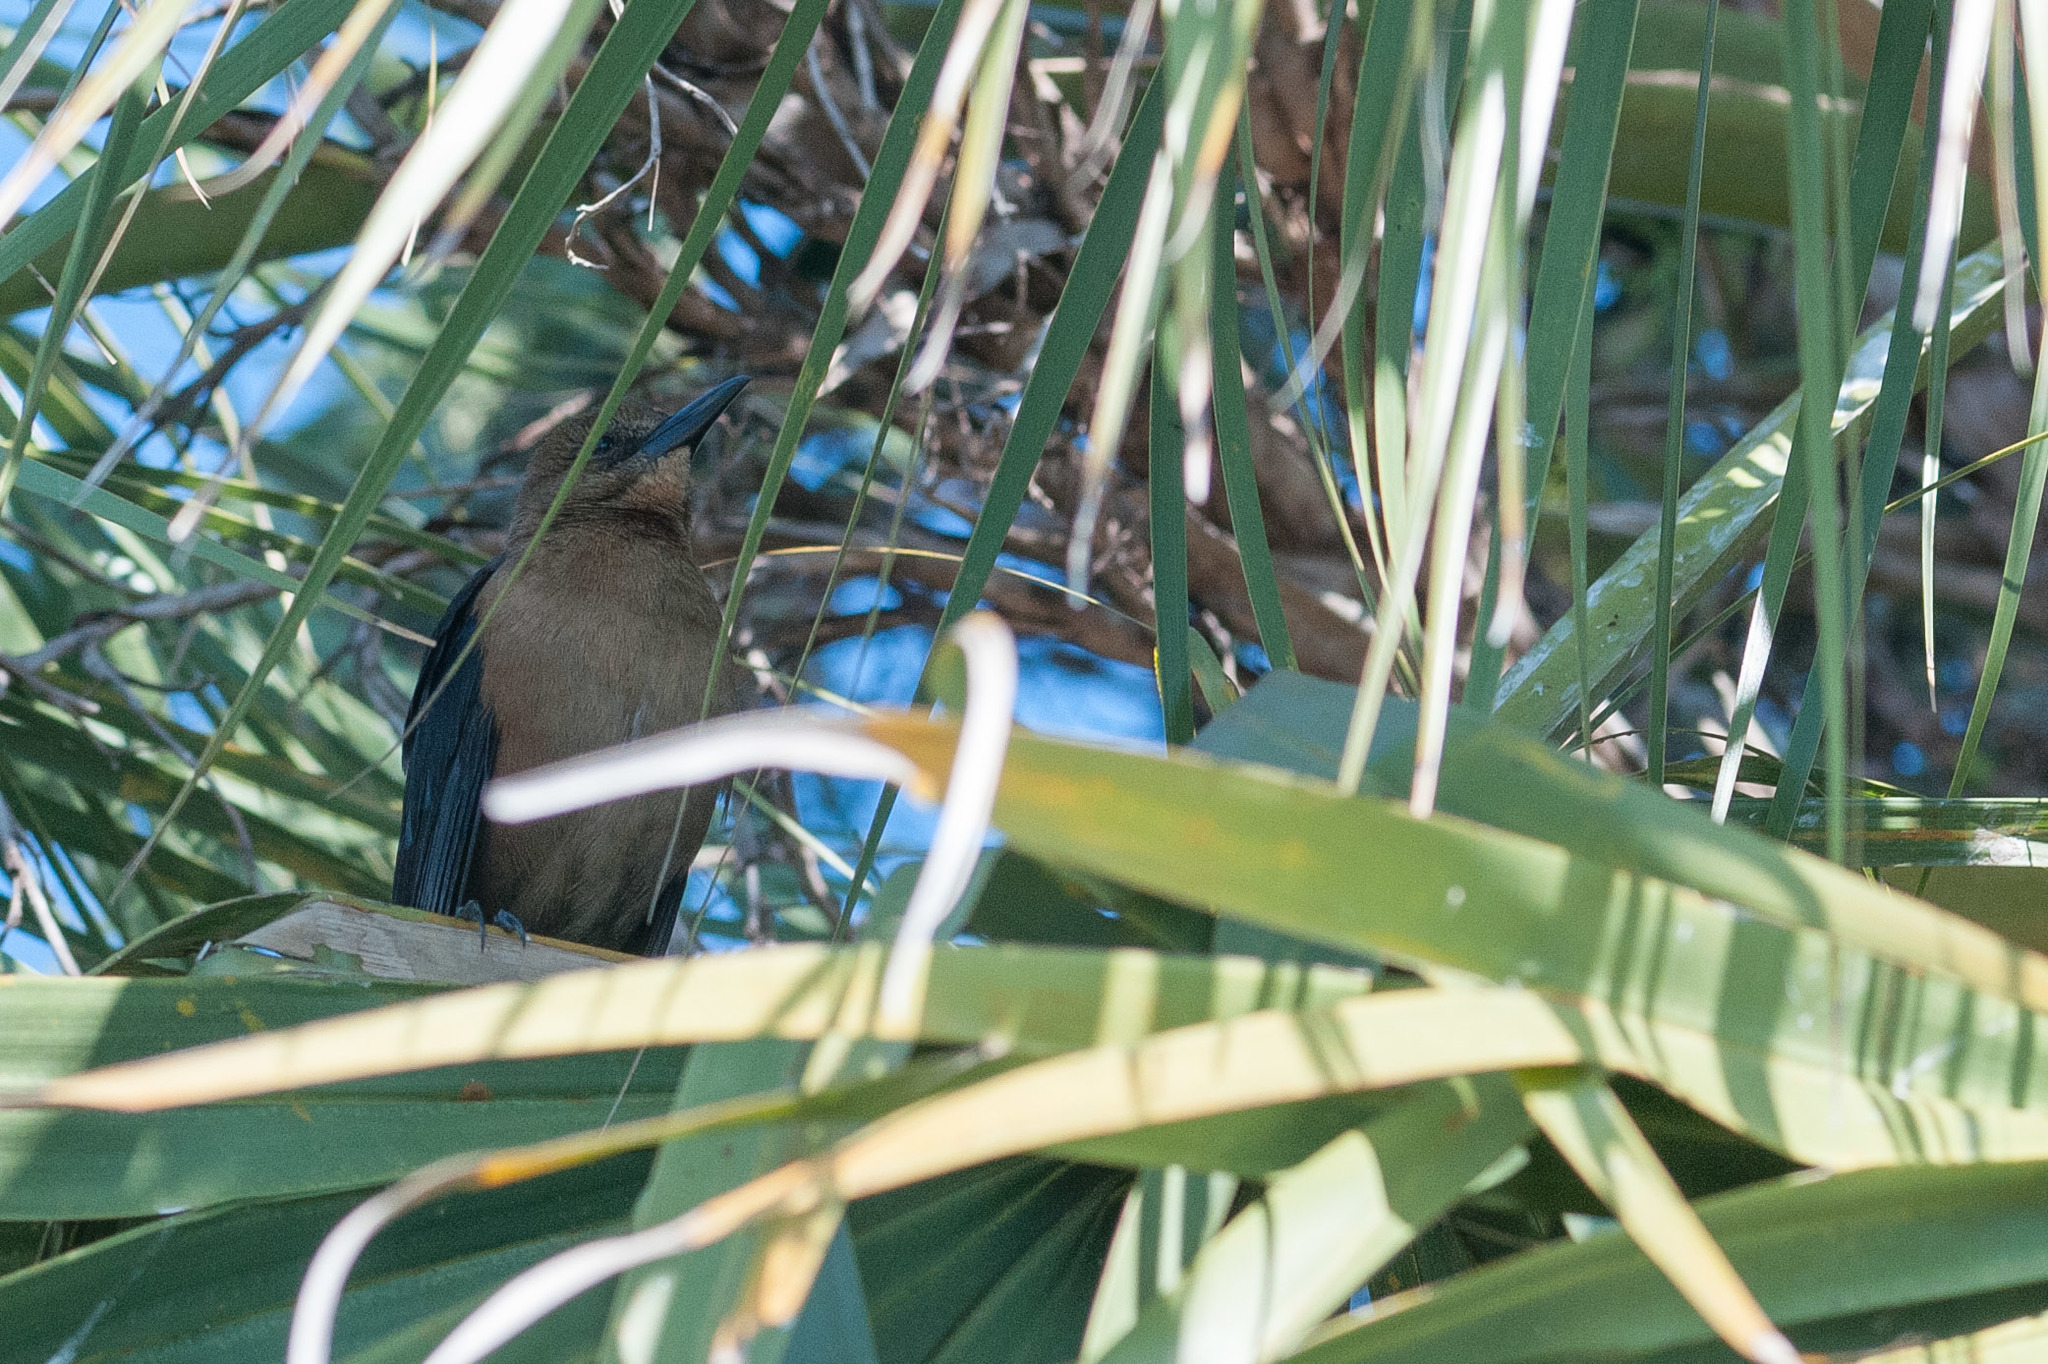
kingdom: Animalia
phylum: Chordata
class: Aves
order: Passeriformes
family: Icteridae
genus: Quiscalus
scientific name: Quiscalus major
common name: Boat-tailed grackle
